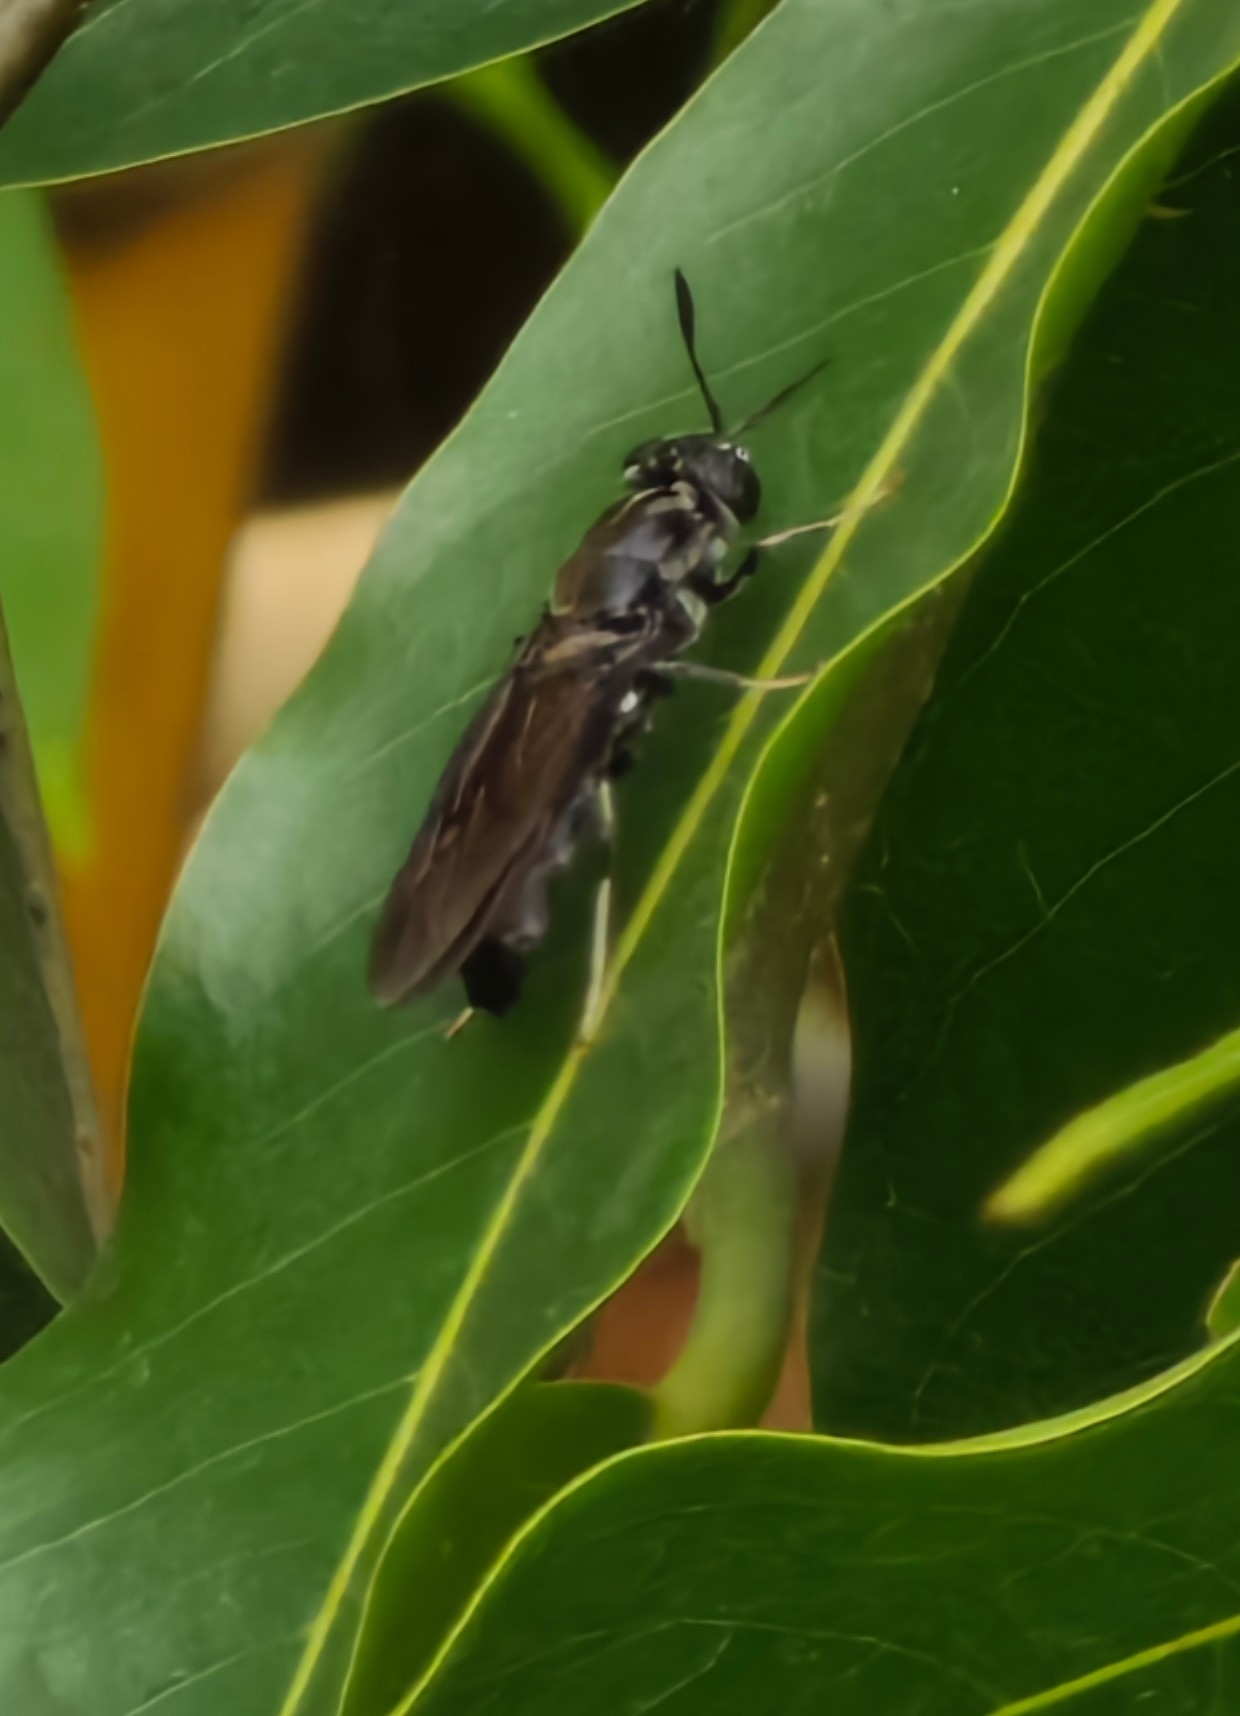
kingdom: Animalia
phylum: Arthropoda
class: Insecta
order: Diptera
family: Stratiomyidae
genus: Hermetia
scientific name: Hermetia illucens
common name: Black soldier fly
